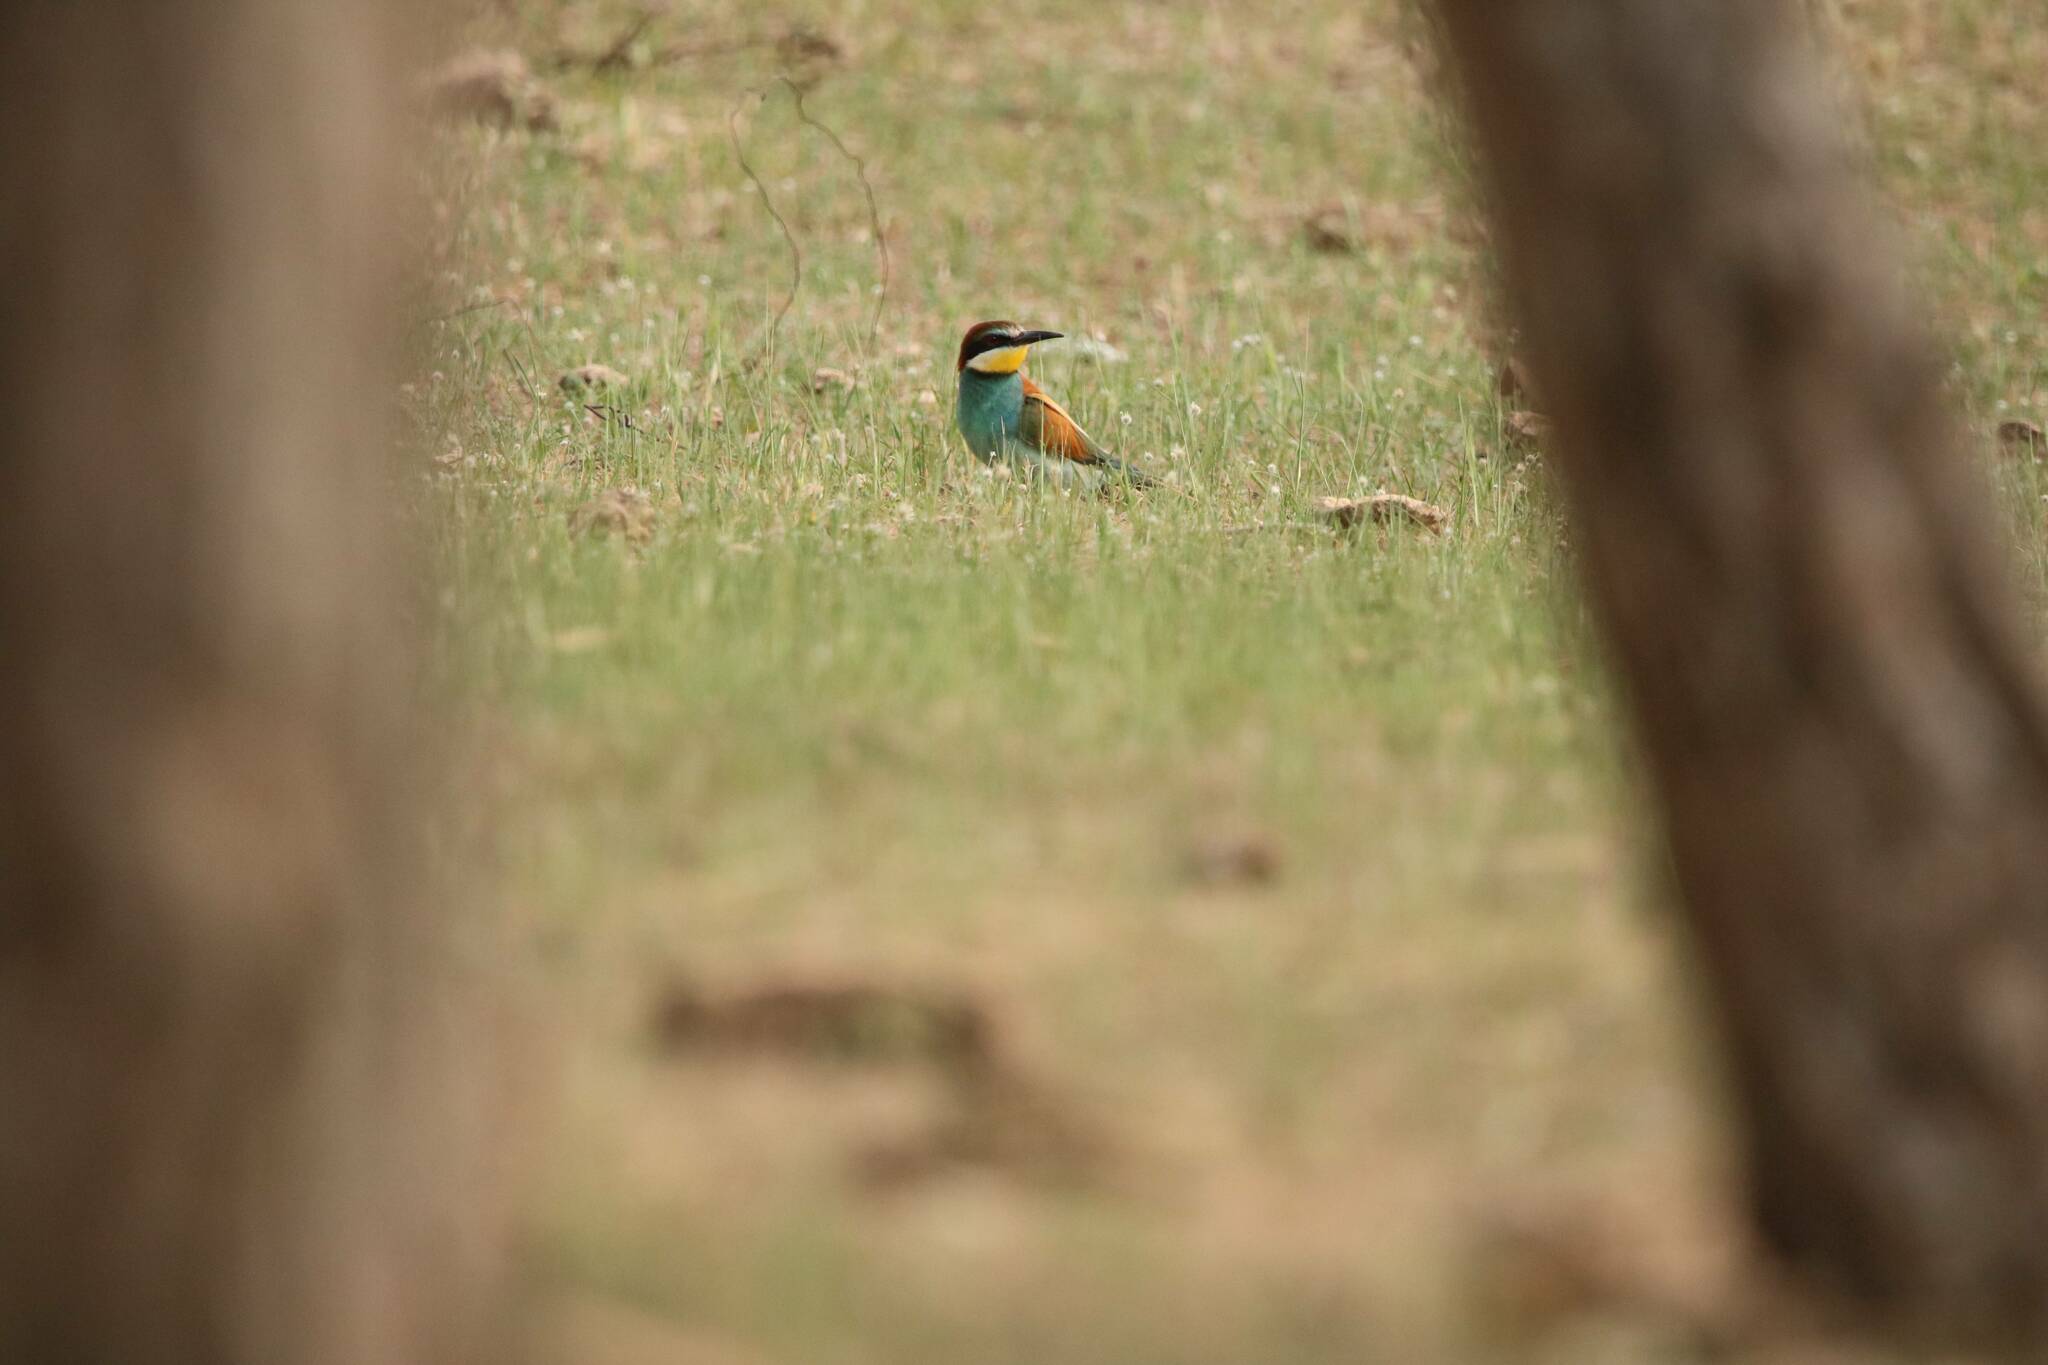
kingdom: Animalia
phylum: Chordata
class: Aves
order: Coraciiformes
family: Meropidae
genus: Merops
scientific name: Merops apiaster
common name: European bee-eater
